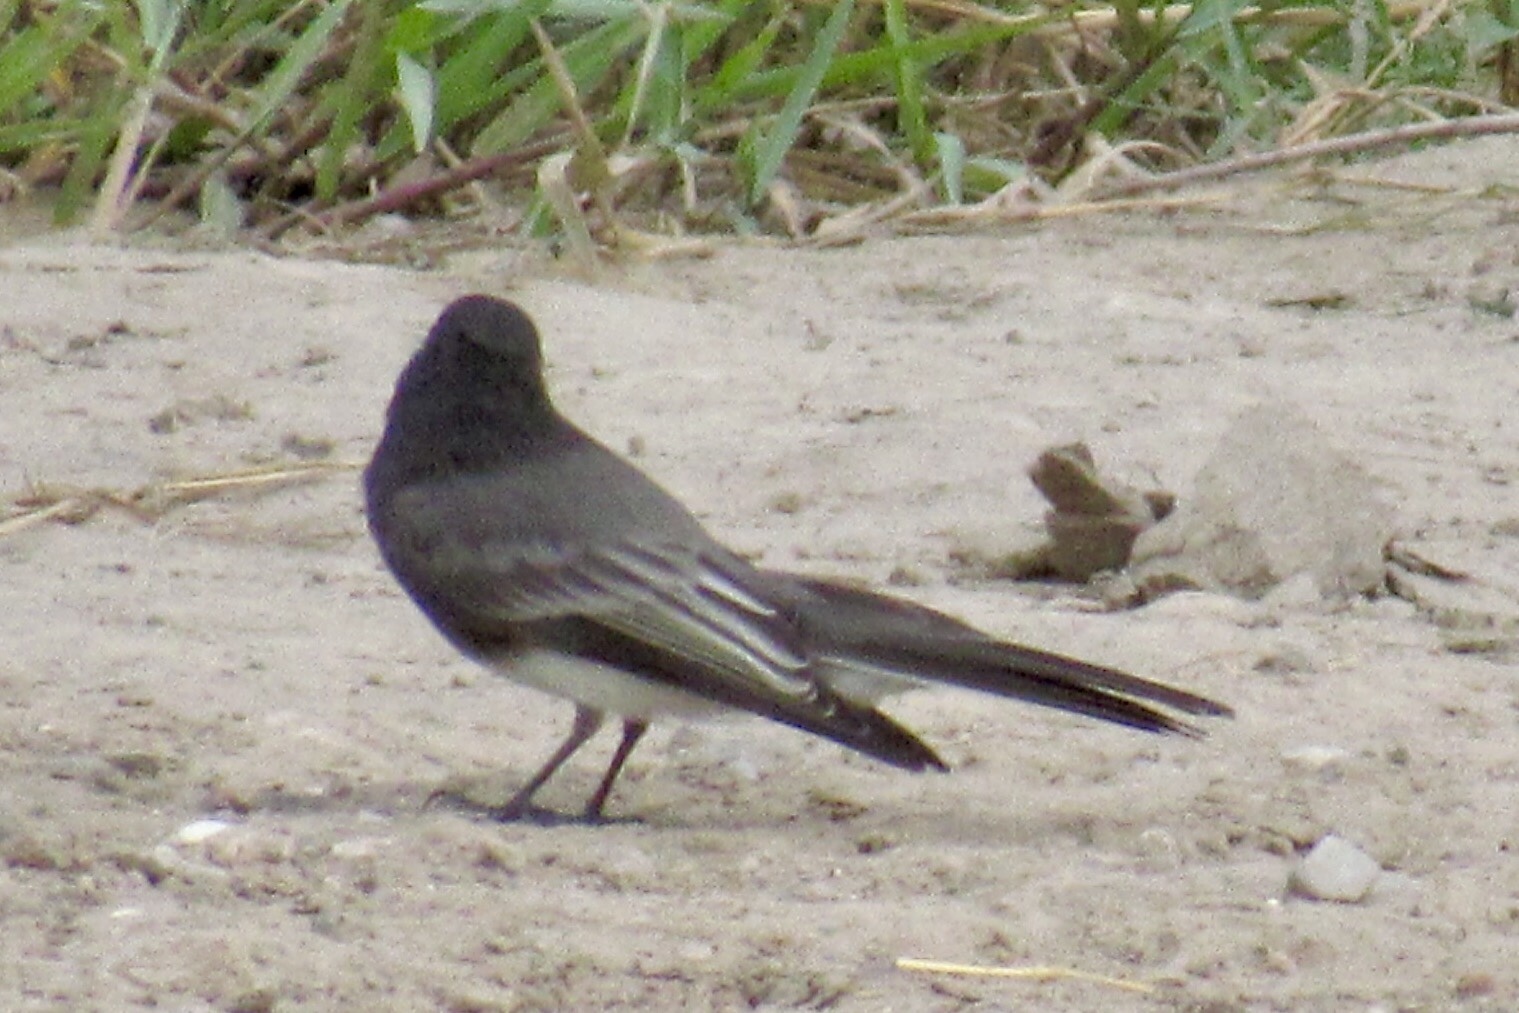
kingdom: Animalia
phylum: Chordata
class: Aves
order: Passeriformes
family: Tyrannidae
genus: Sayornis
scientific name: Sayornis nigricans
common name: Black phoebe
